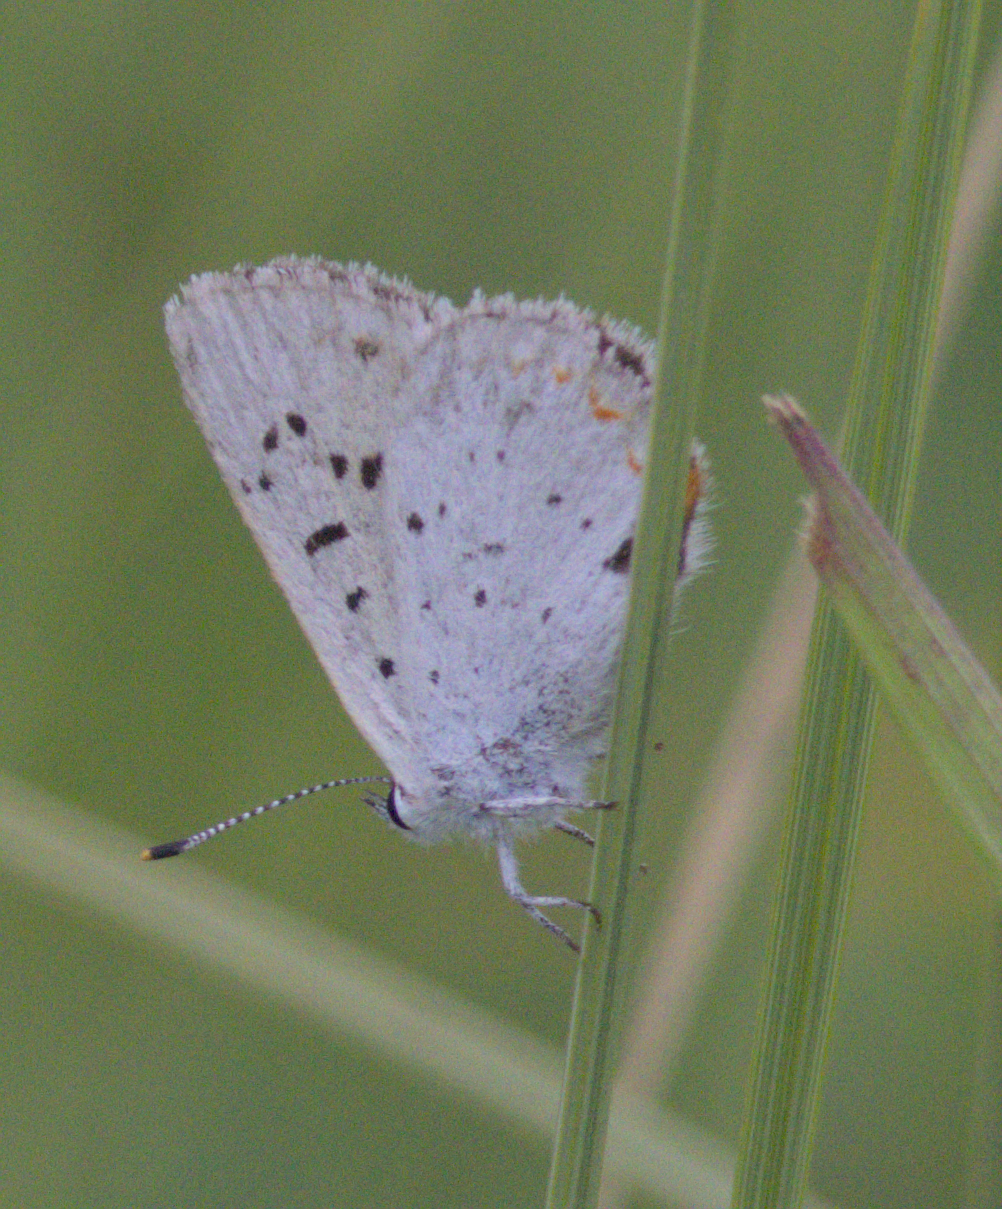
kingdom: Animalia
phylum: Arthropoda
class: Insecta
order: Lepidoptera
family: Lycaenidae
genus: Tharsalea
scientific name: Tharsalea epixanthe
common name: Bog copper
